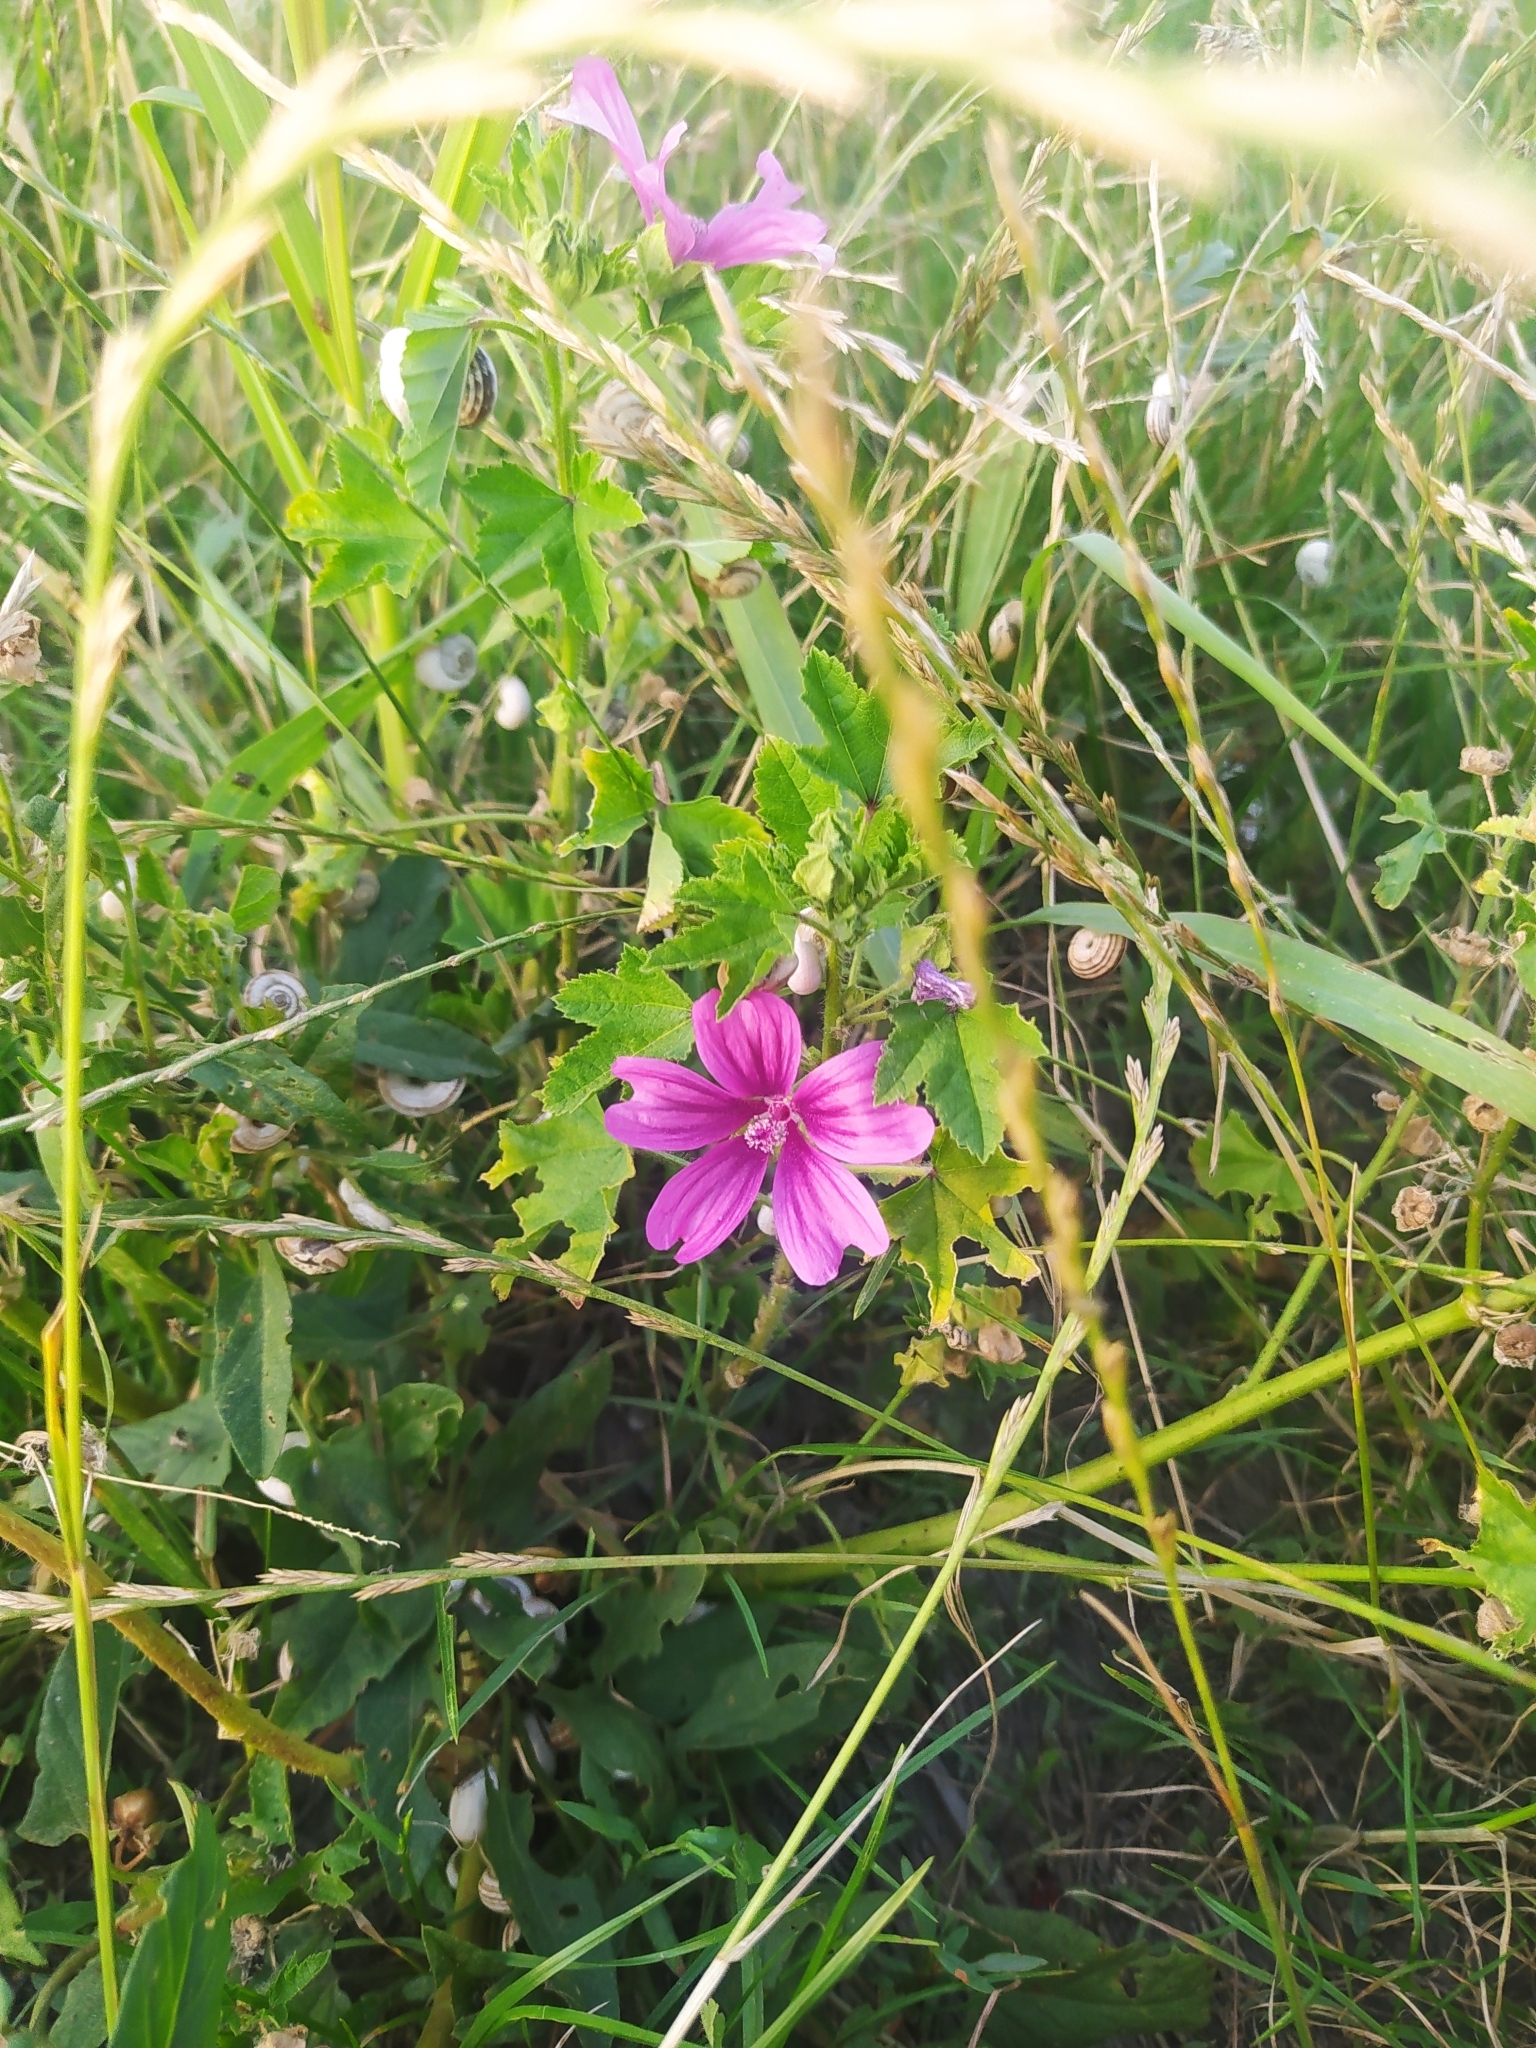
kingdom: Plantae
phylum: Tracheophyta
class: Magnoliopsida
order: Malvales
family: Malvaceae
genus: Malva
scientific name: Malva sylvestris
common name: Common mallow
